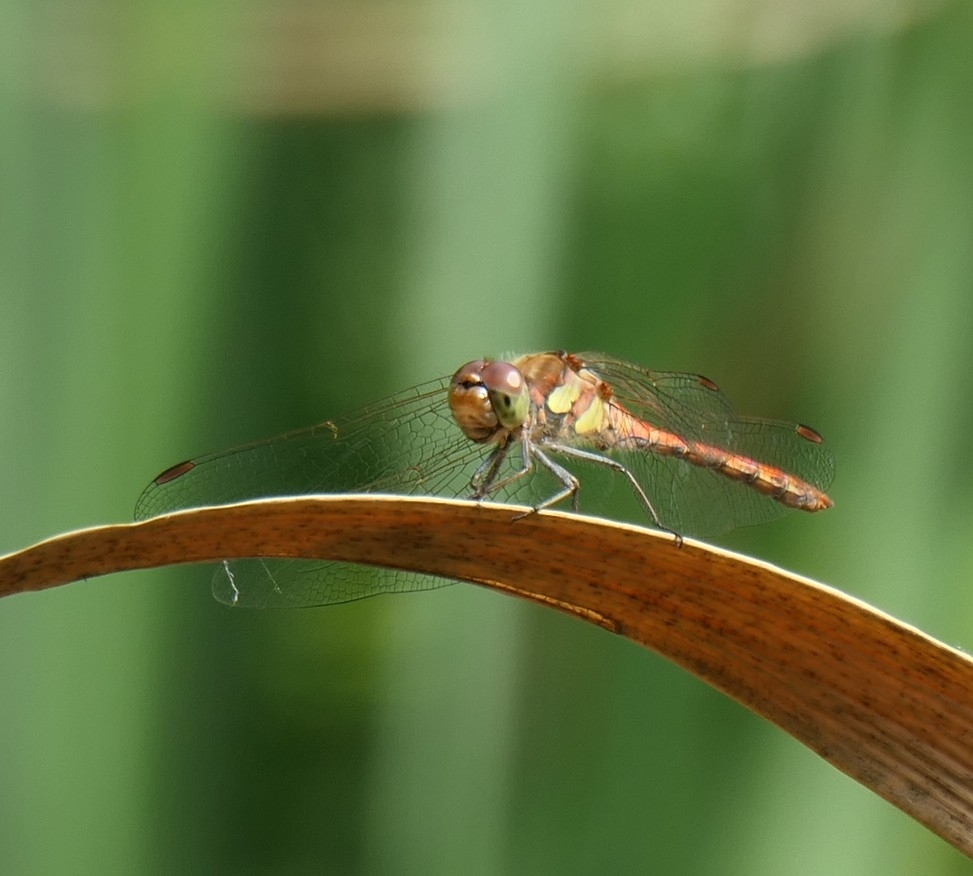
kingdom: Animalia
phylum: Arthropoda
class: Insecta
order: Odonata
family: Libellulidae
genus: Sympetrum
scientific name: Sympetrum striolatum
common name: Common darter
